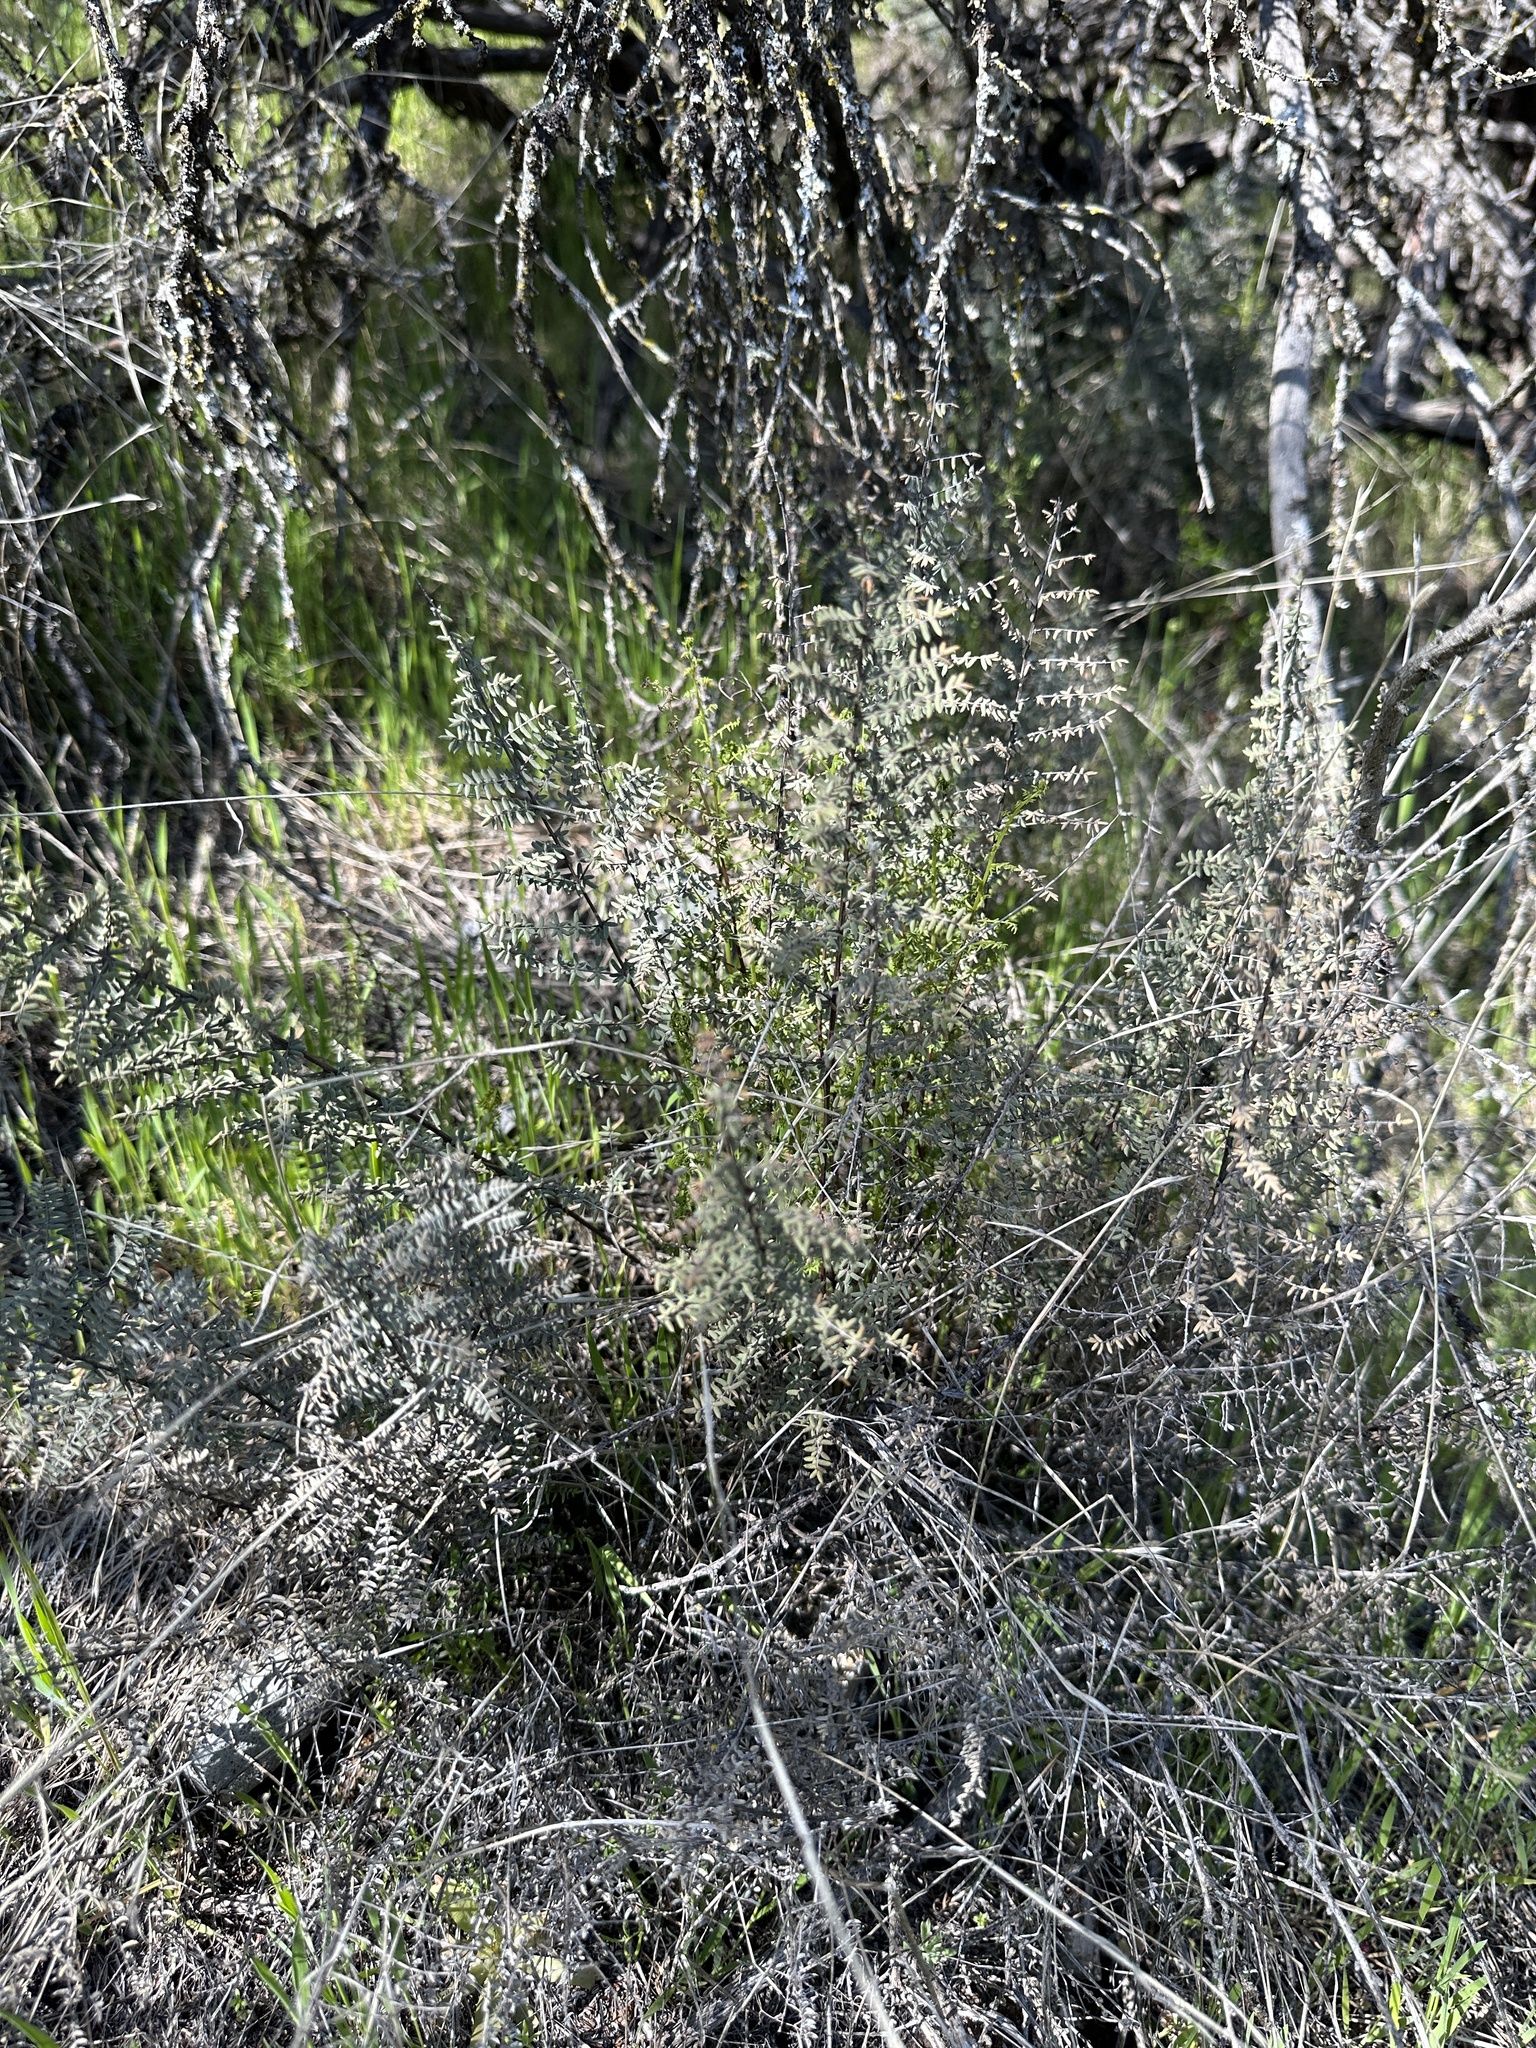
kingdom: Plantae
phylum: Tracheophyta
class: Polypodiopsida
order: Polypodiales
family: Pteridaceae
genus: Pellaea
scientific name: Pellaea mucronata
